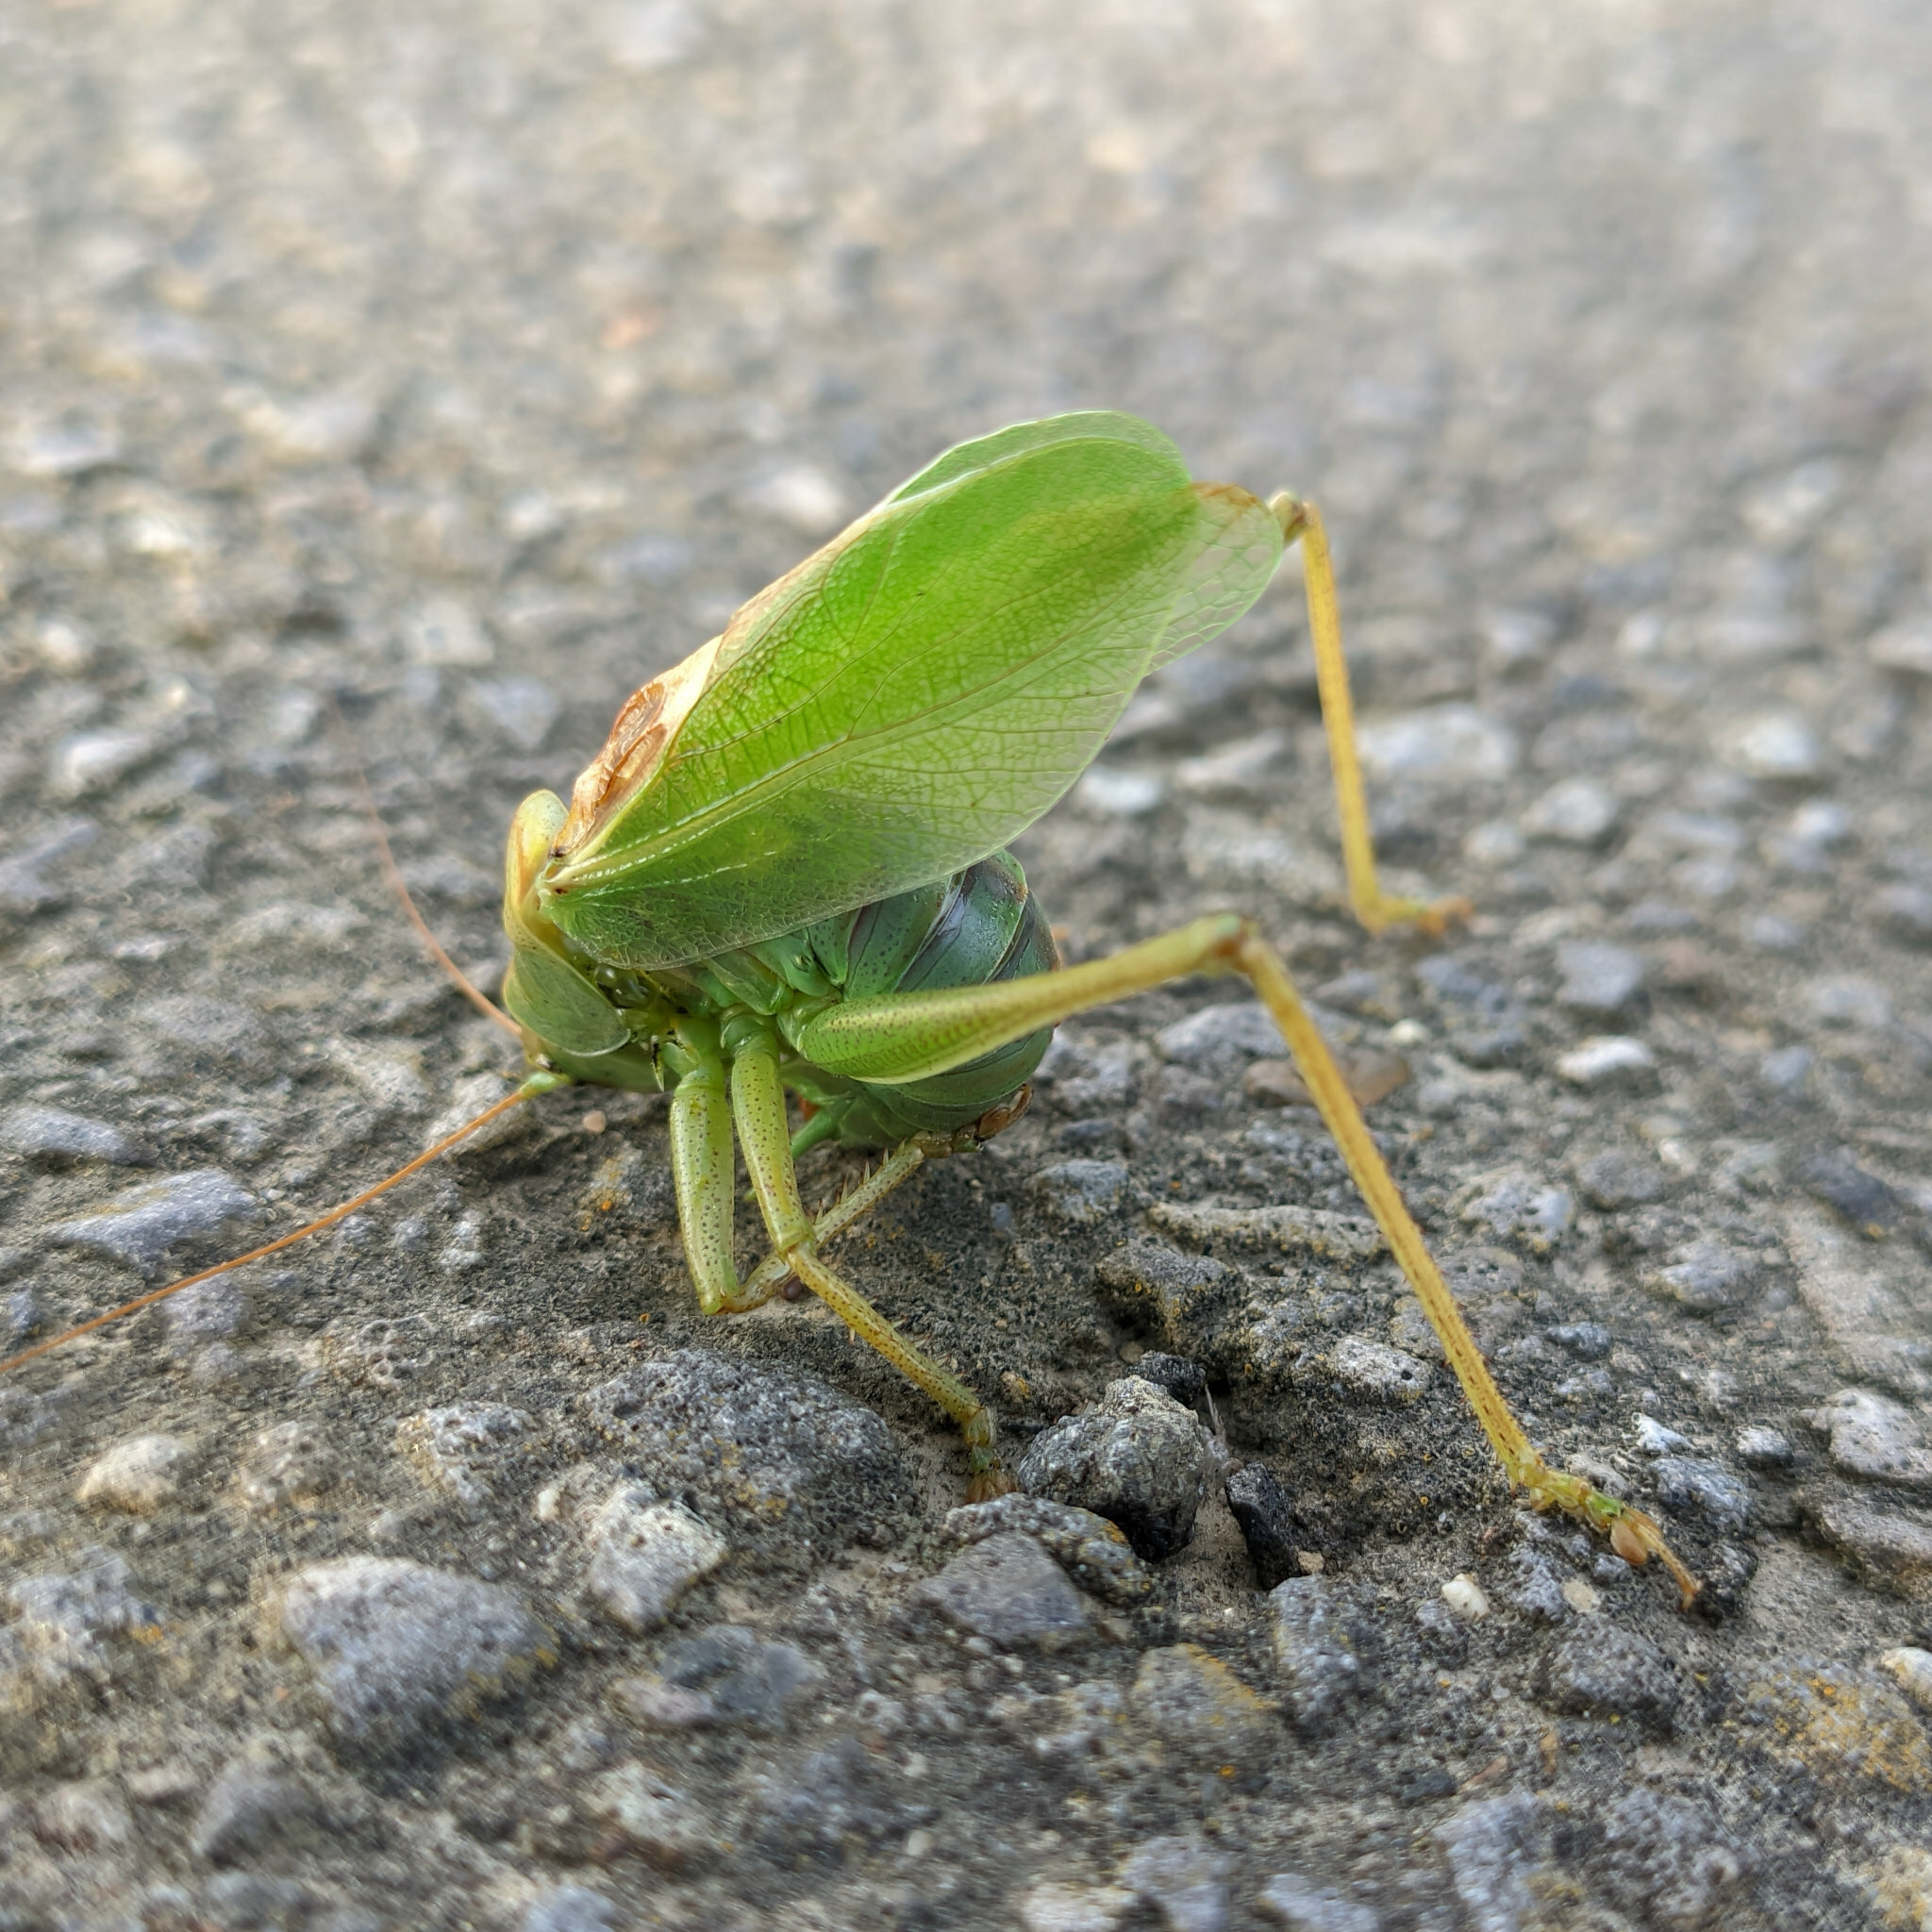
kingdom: Animalia
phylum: Arthropoda
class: Insecta
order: Orthoptera
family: Tettigoniidae
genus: Tettigonia
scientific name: Tettigonia cantans
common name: Upland green bush-cricket
